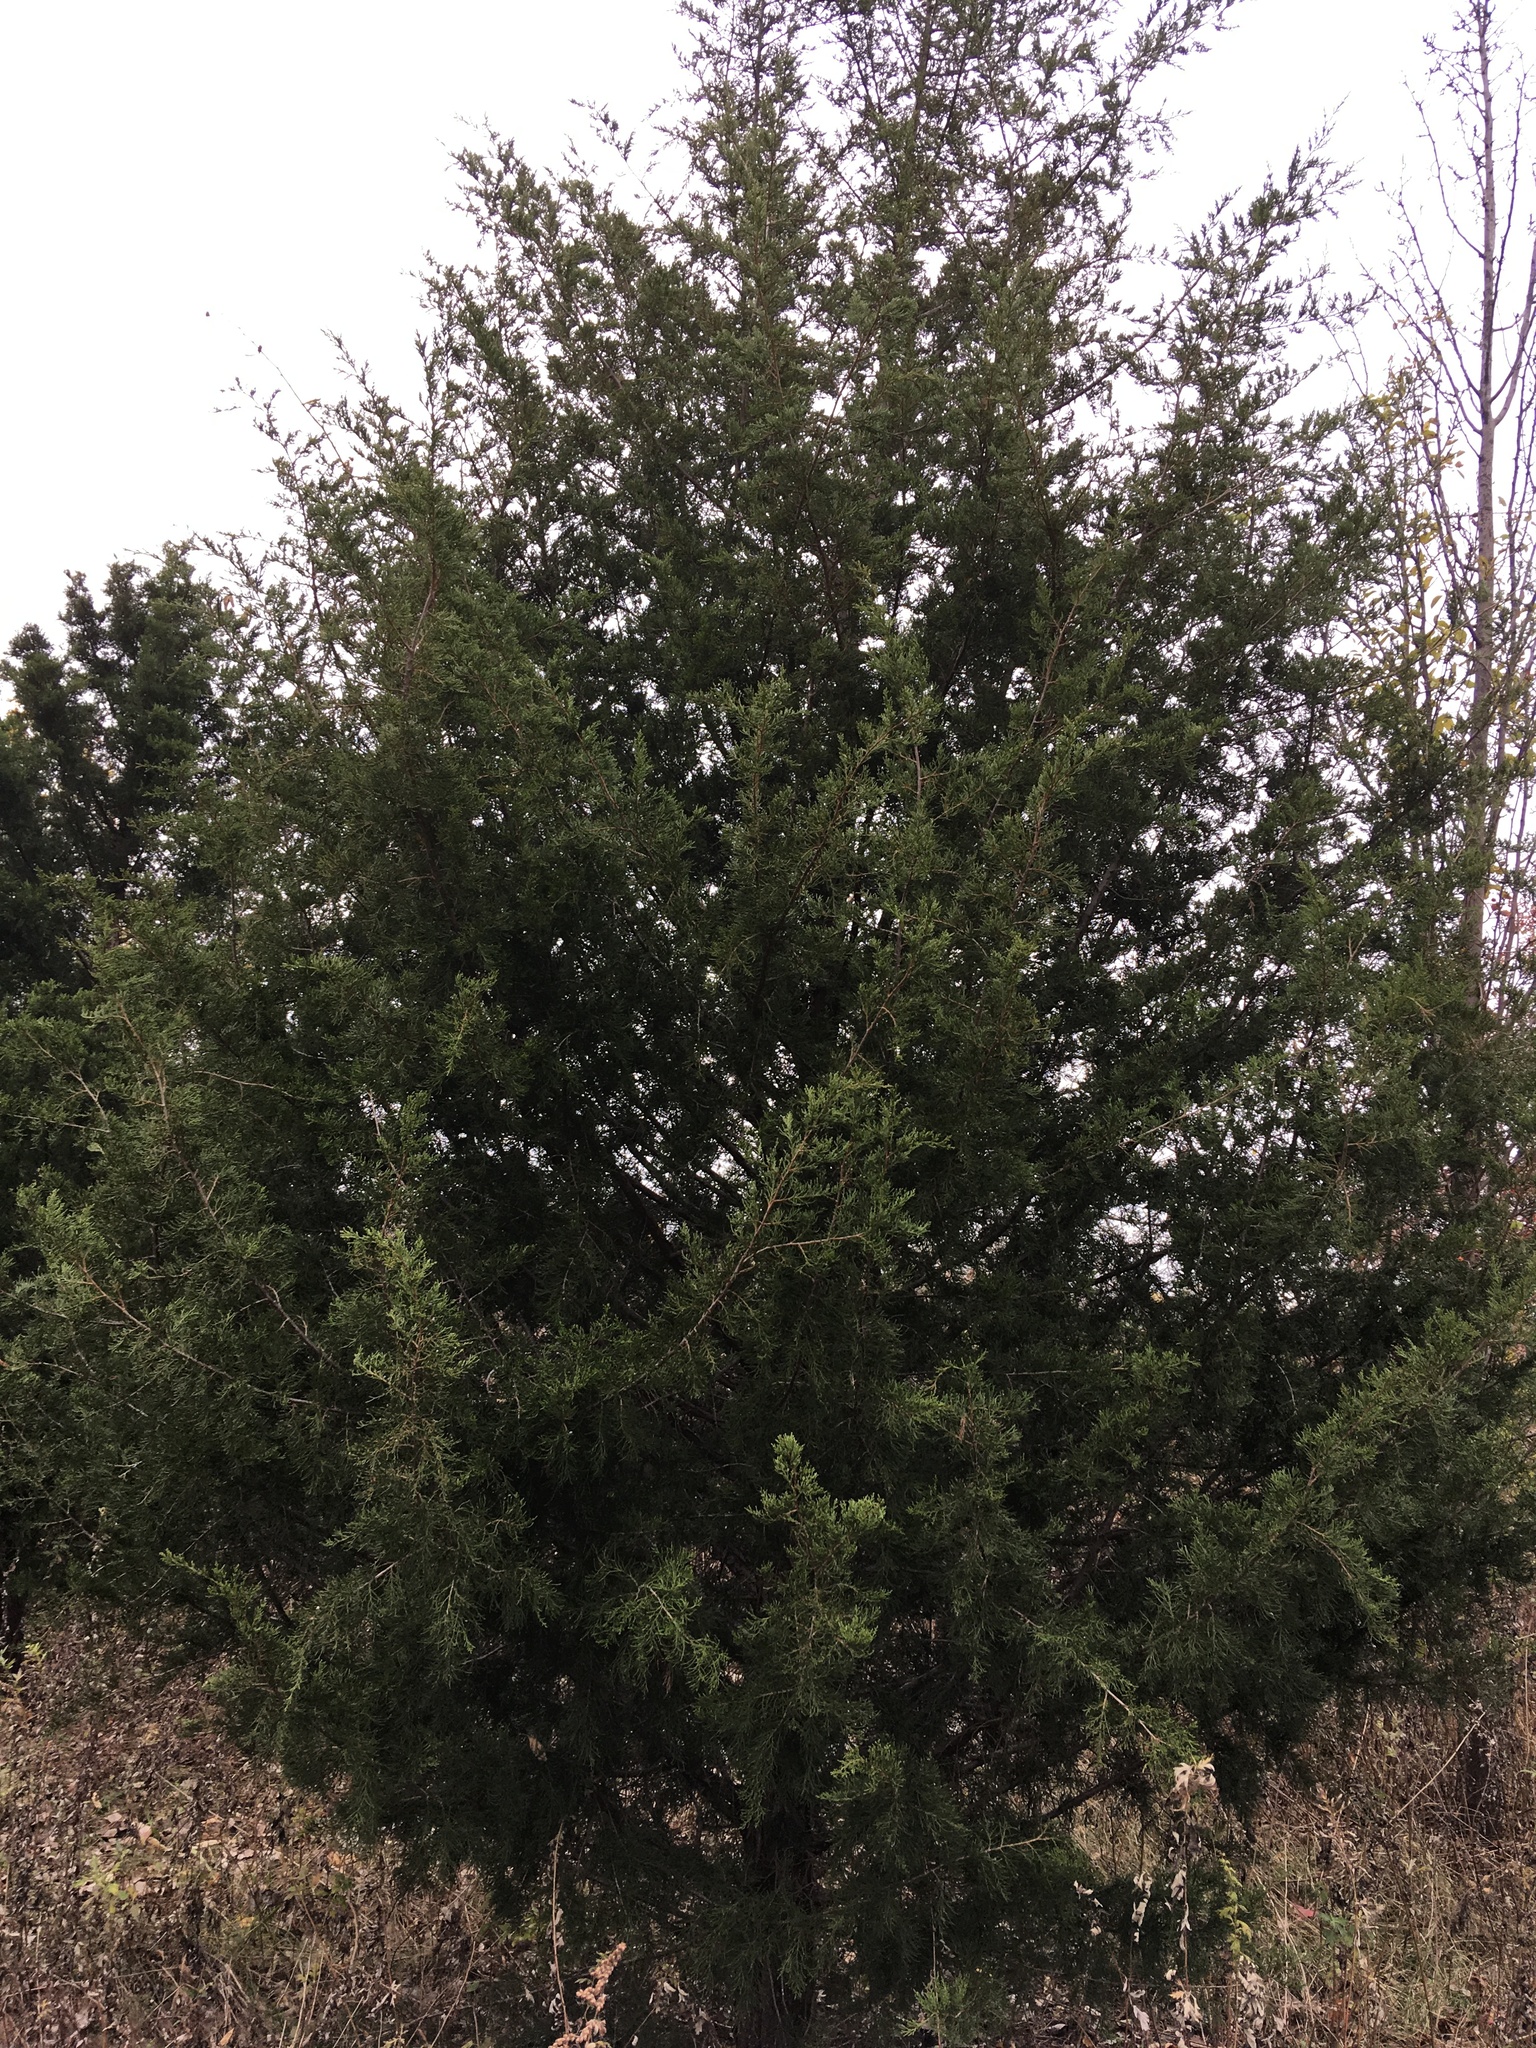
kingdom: Plantae
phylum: Tracheophyta
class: Pinopsida
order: Pinales
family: Cupressaceae
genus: Juniperus
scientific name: Juniperus virginiana
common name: Red juniper
